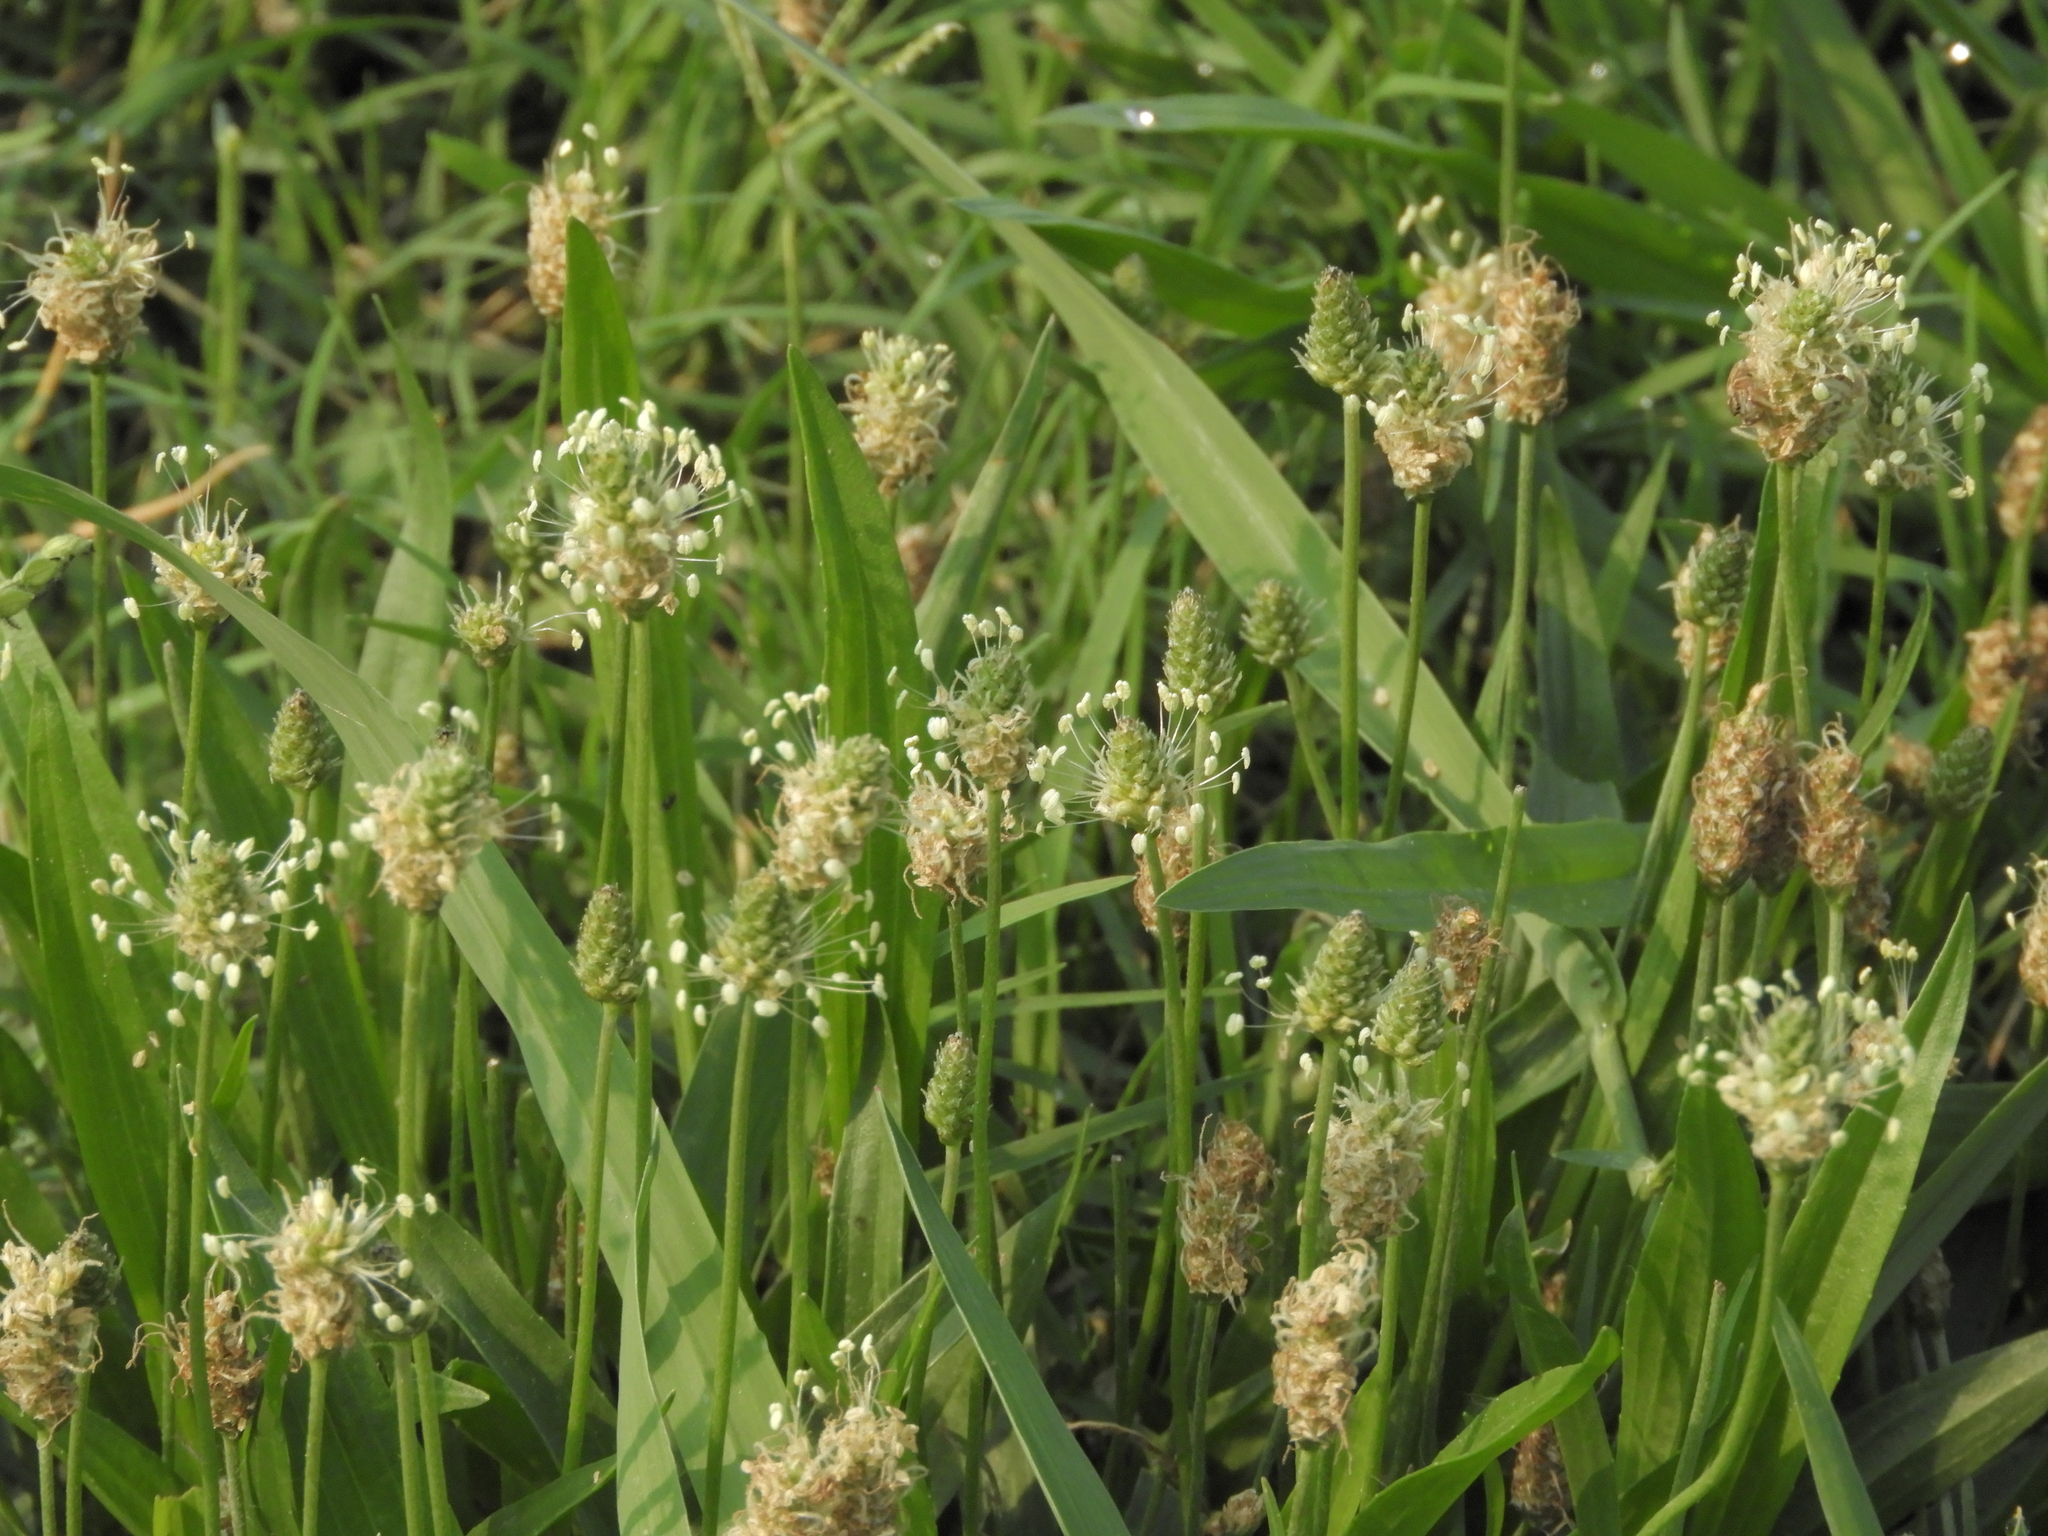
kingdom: Plantae
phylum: Tracheophyta
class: Magnoliopsida
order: Lamiales
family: Plantaginaceae
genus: Plantago
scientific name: Plantago lanceolata
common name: Ribwort plantain
